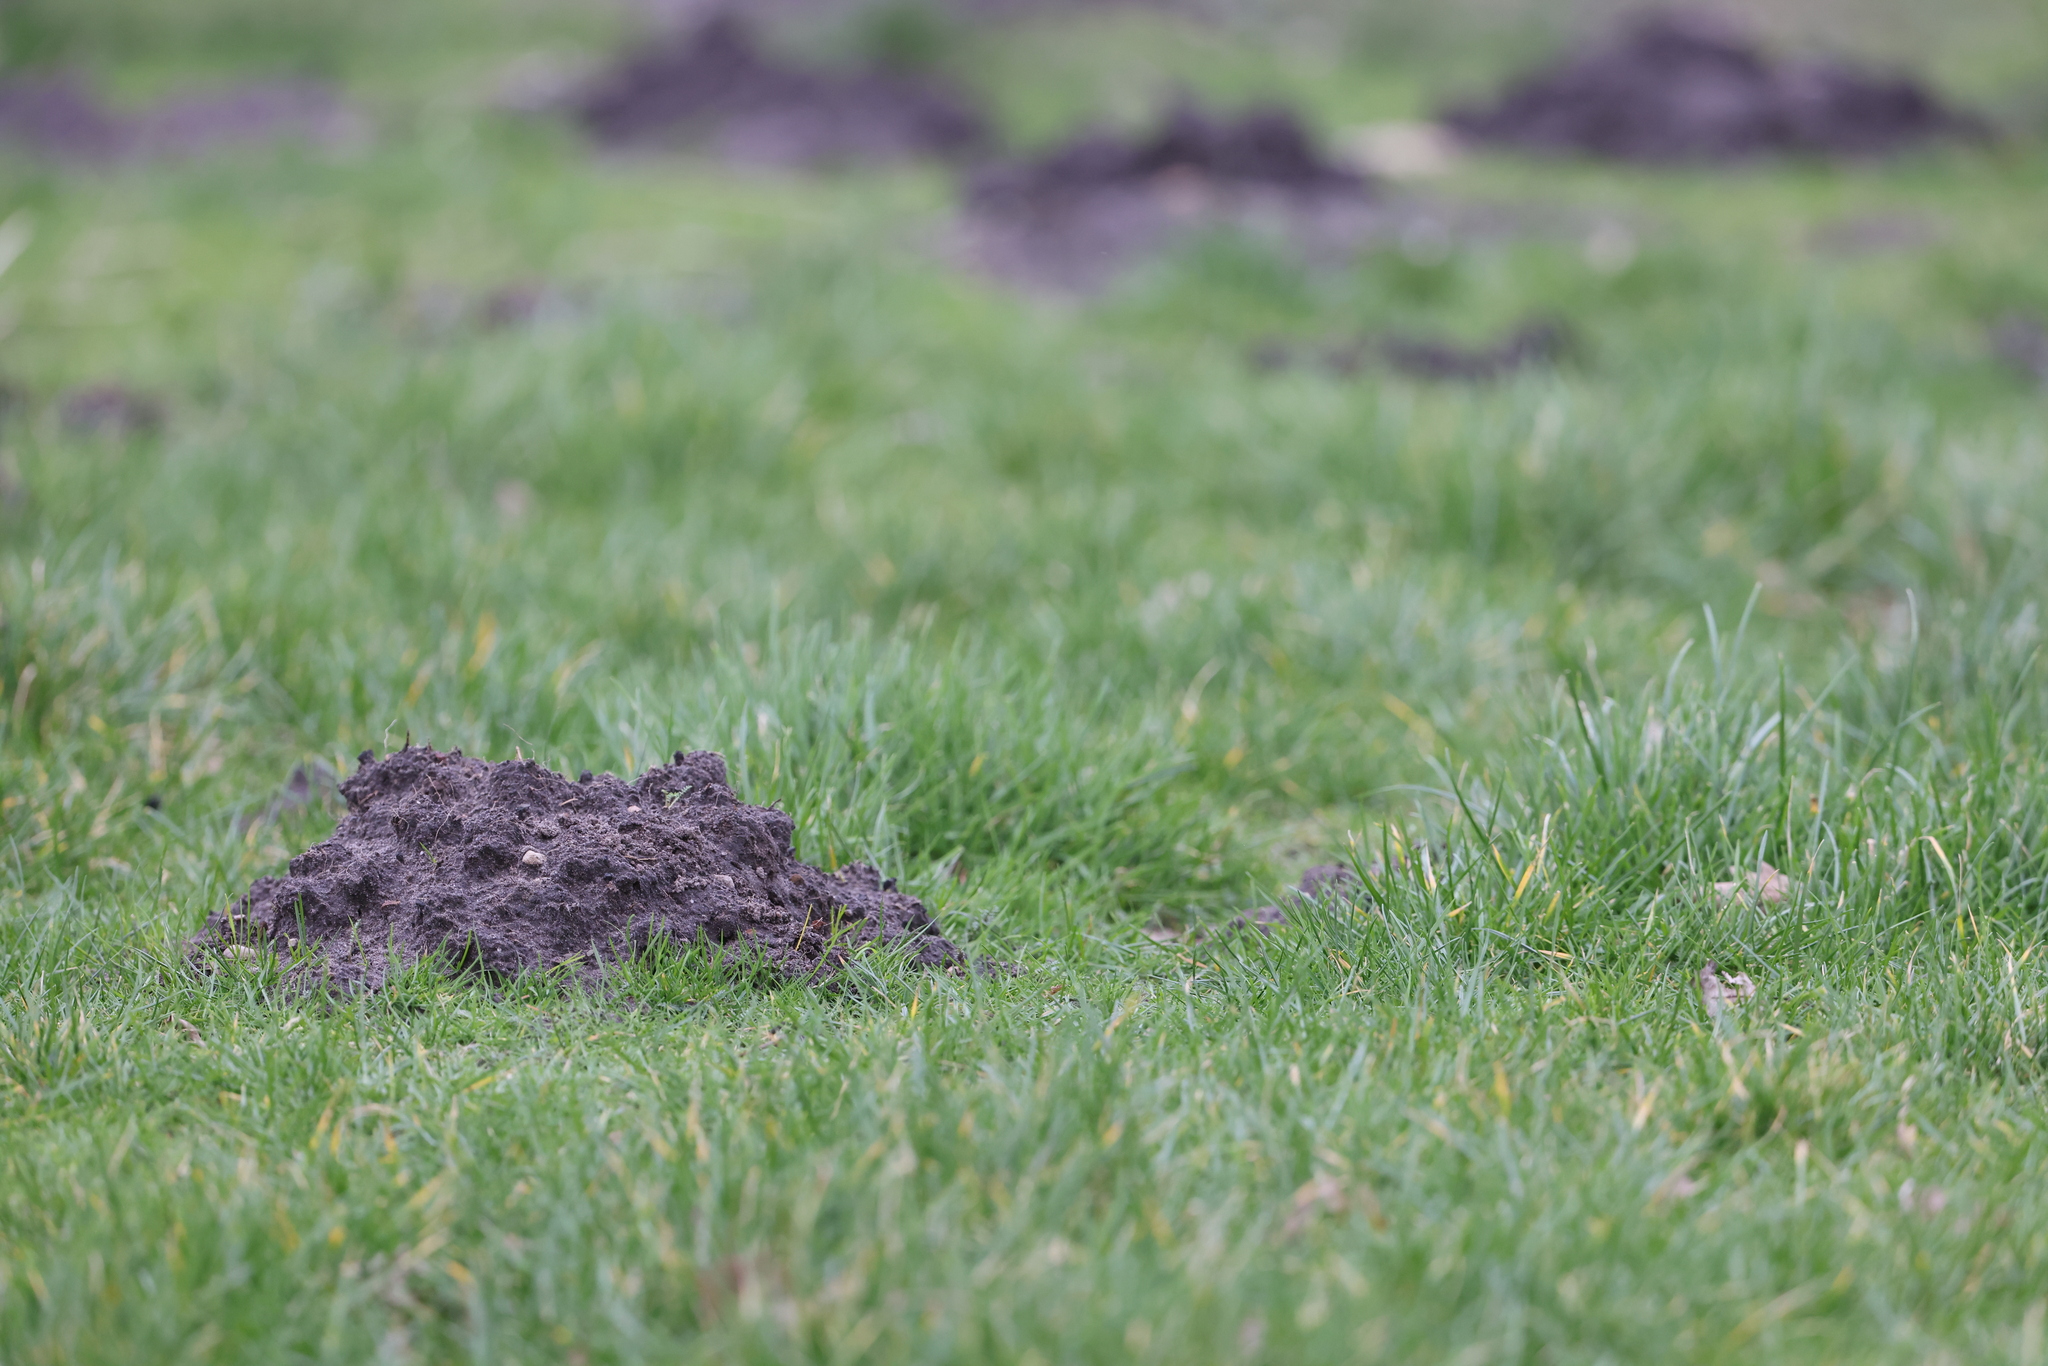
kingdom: Animalia
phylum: Chordata
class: Mammalia
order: Soricomorpha
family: Talpidae
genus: Talpa
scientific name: Talpa europaea
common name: European mole
